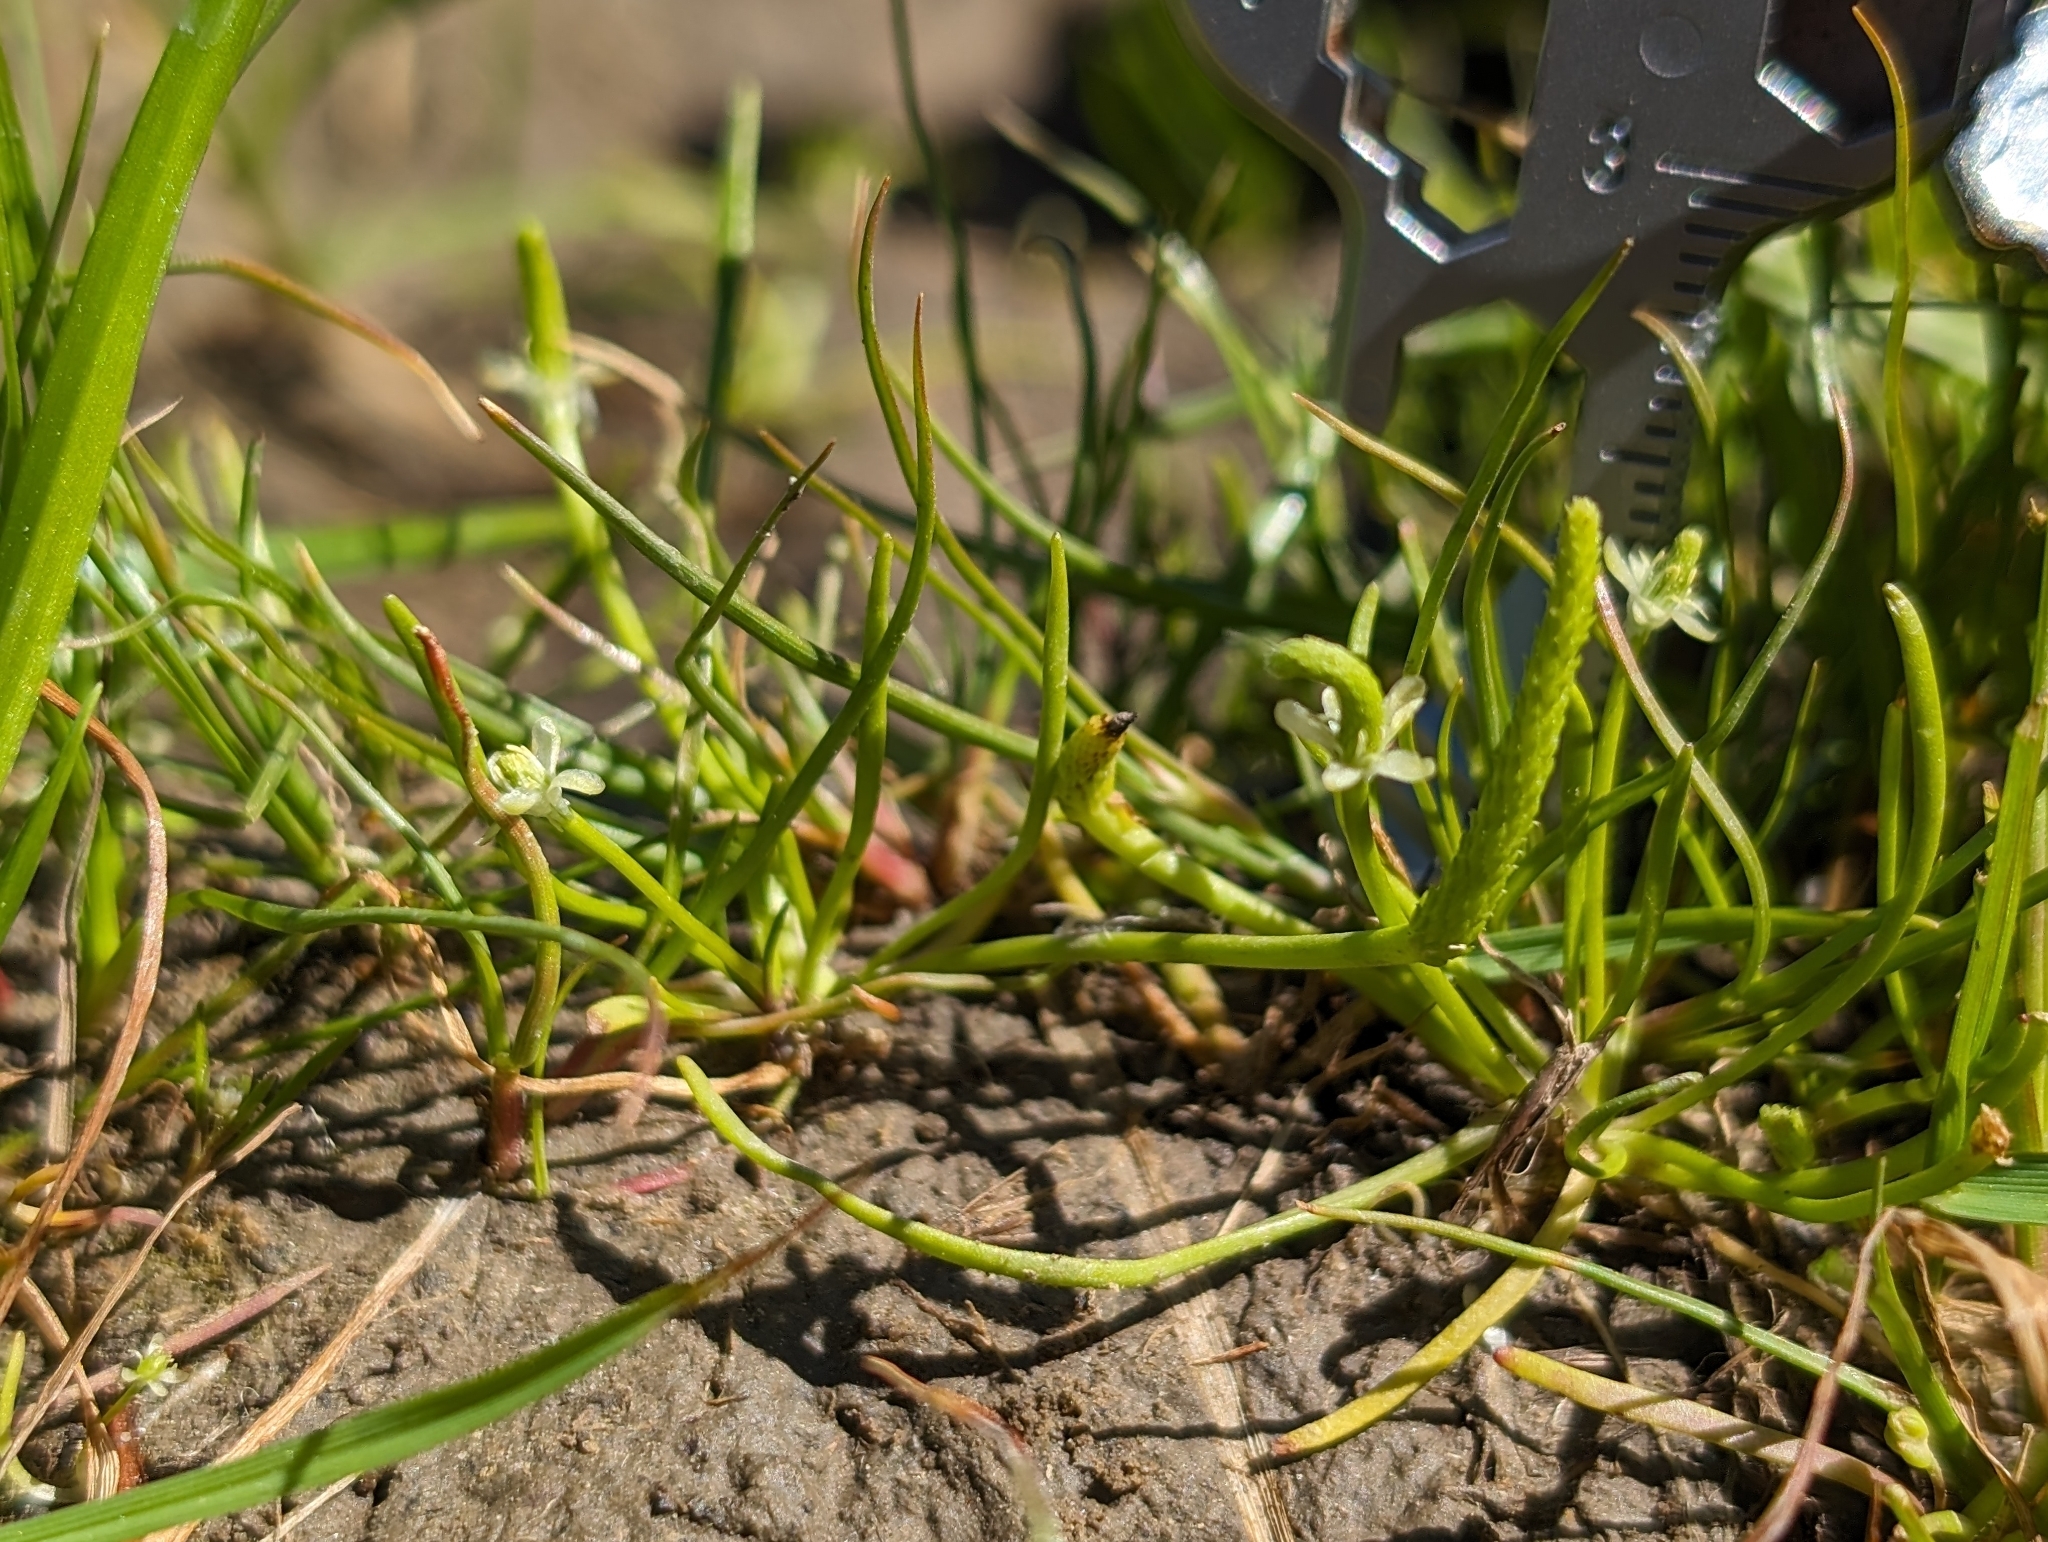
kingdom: Plantae
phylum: Tracheophyta
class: Magnoliopsida
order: Ranunculales
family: Ranunculaceae
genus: Myosurus
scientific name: Myosurus minimus
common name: Mousetail
